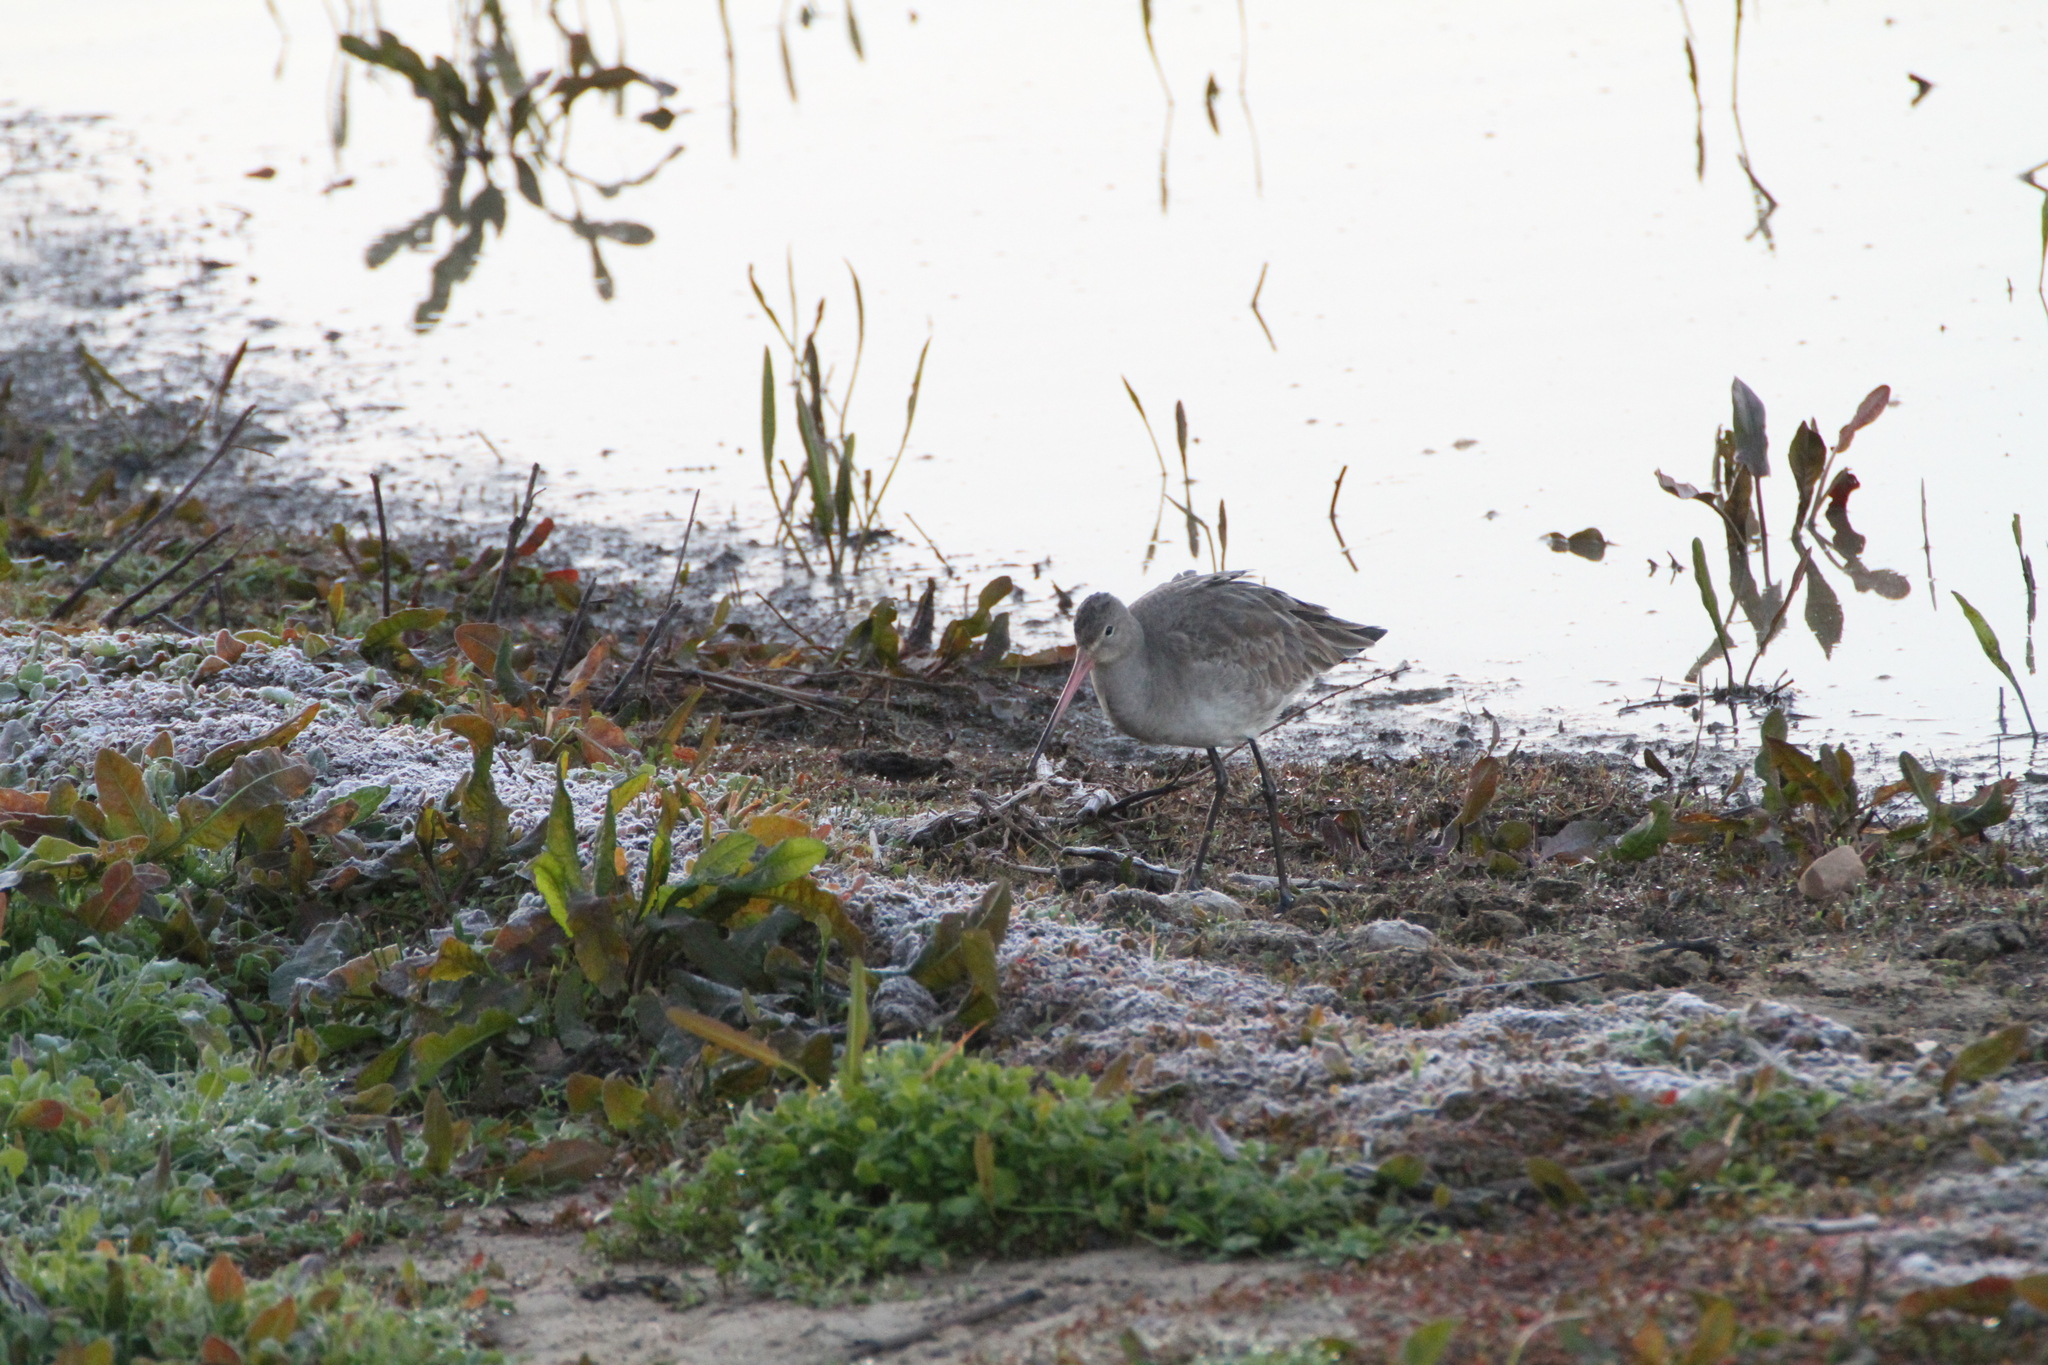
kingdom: Animalia
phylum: Chordata
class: Aves
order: Charadriiformes
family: Scolopacidae
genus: Limosa
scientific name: Limosa limosa
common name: Black-tailed godwit
